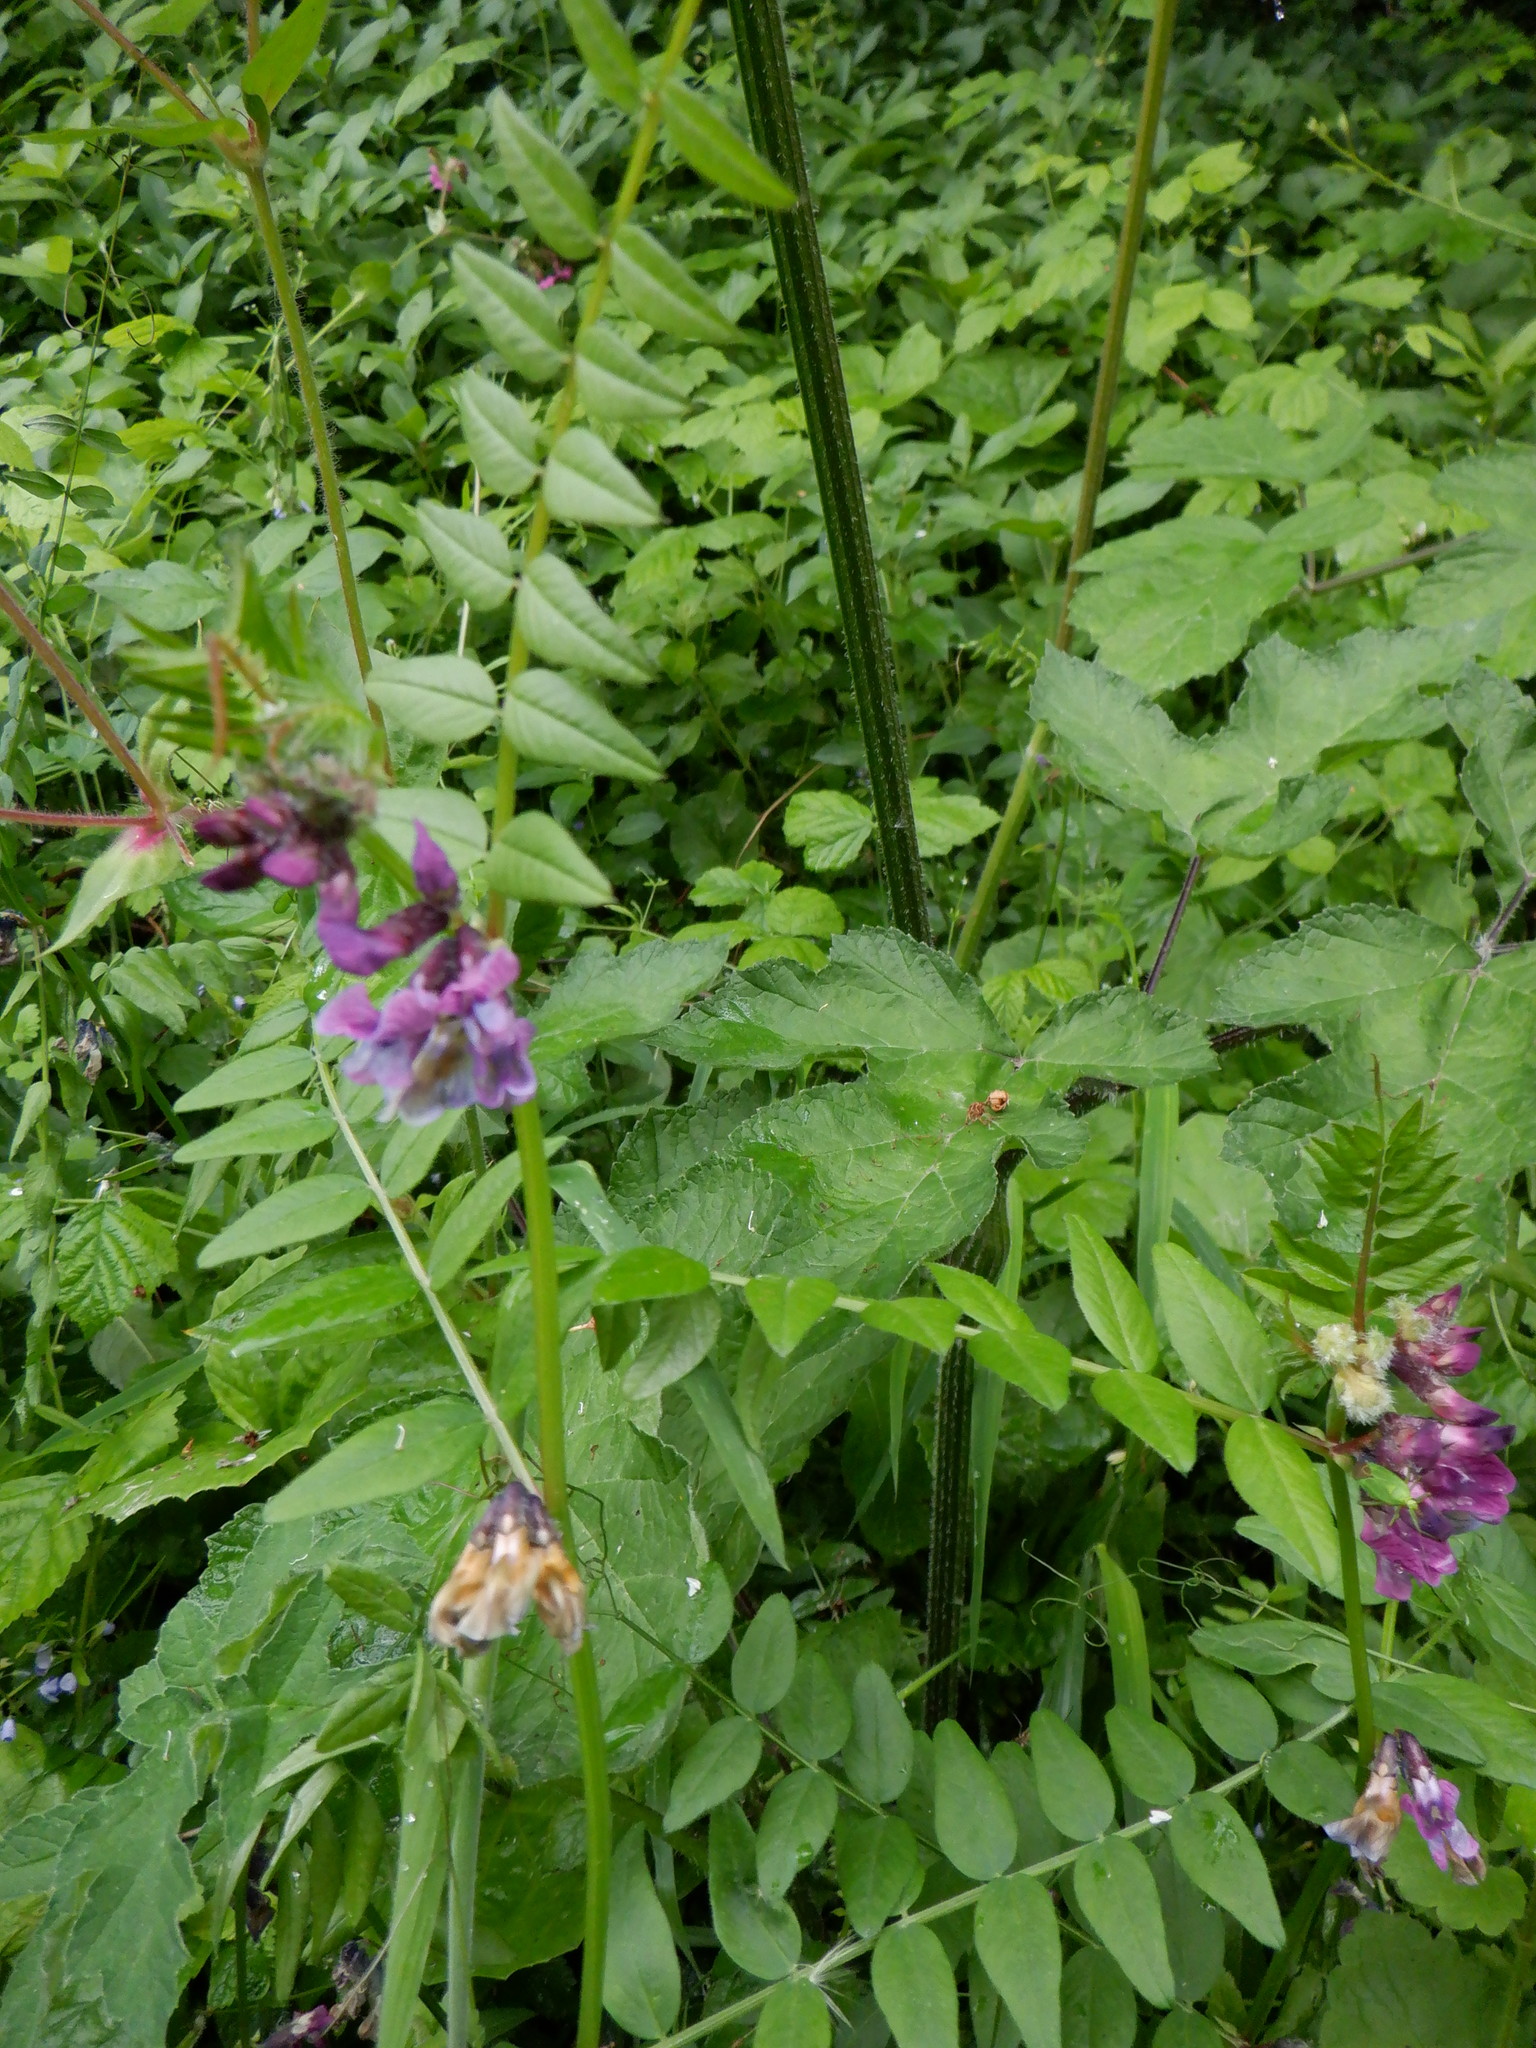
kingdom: Plantae
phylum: Tracheophyta
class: Magnoliopsida
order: Fabales
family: Fabaceae
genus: Vicia
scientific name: Vicia sepium
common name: Bush vetch
